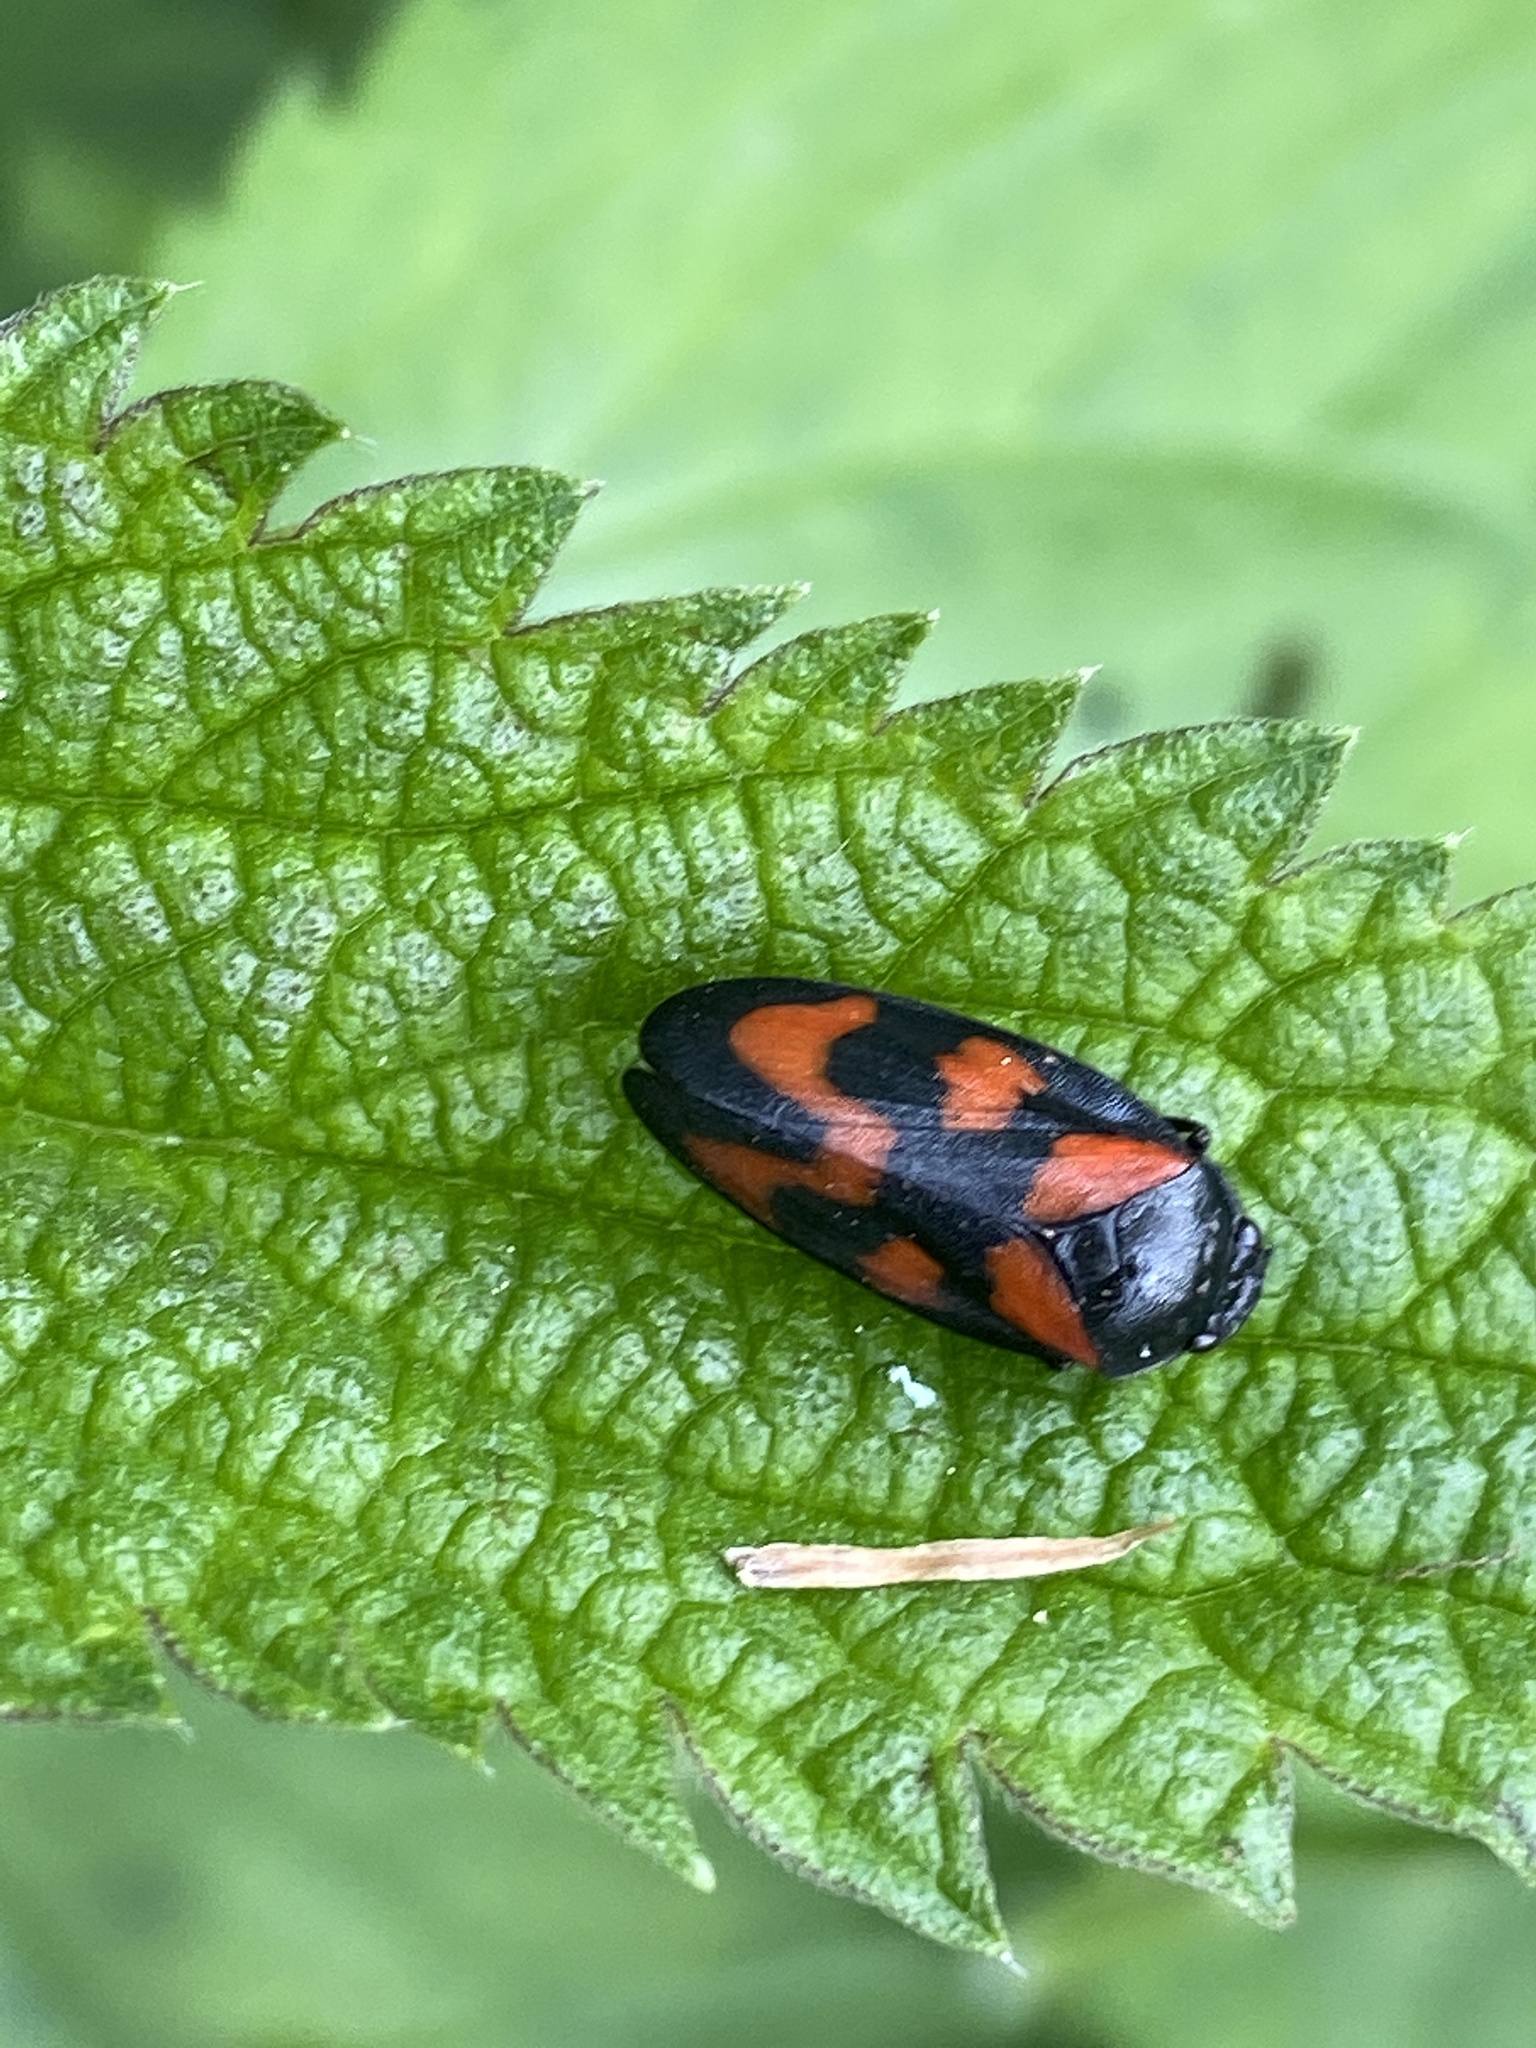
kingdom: Animalia
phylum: Arthropoda
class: Insecta
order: Hemiptera
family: Cercopidae
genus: Cercopis
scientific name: Cercopis vulnerata
